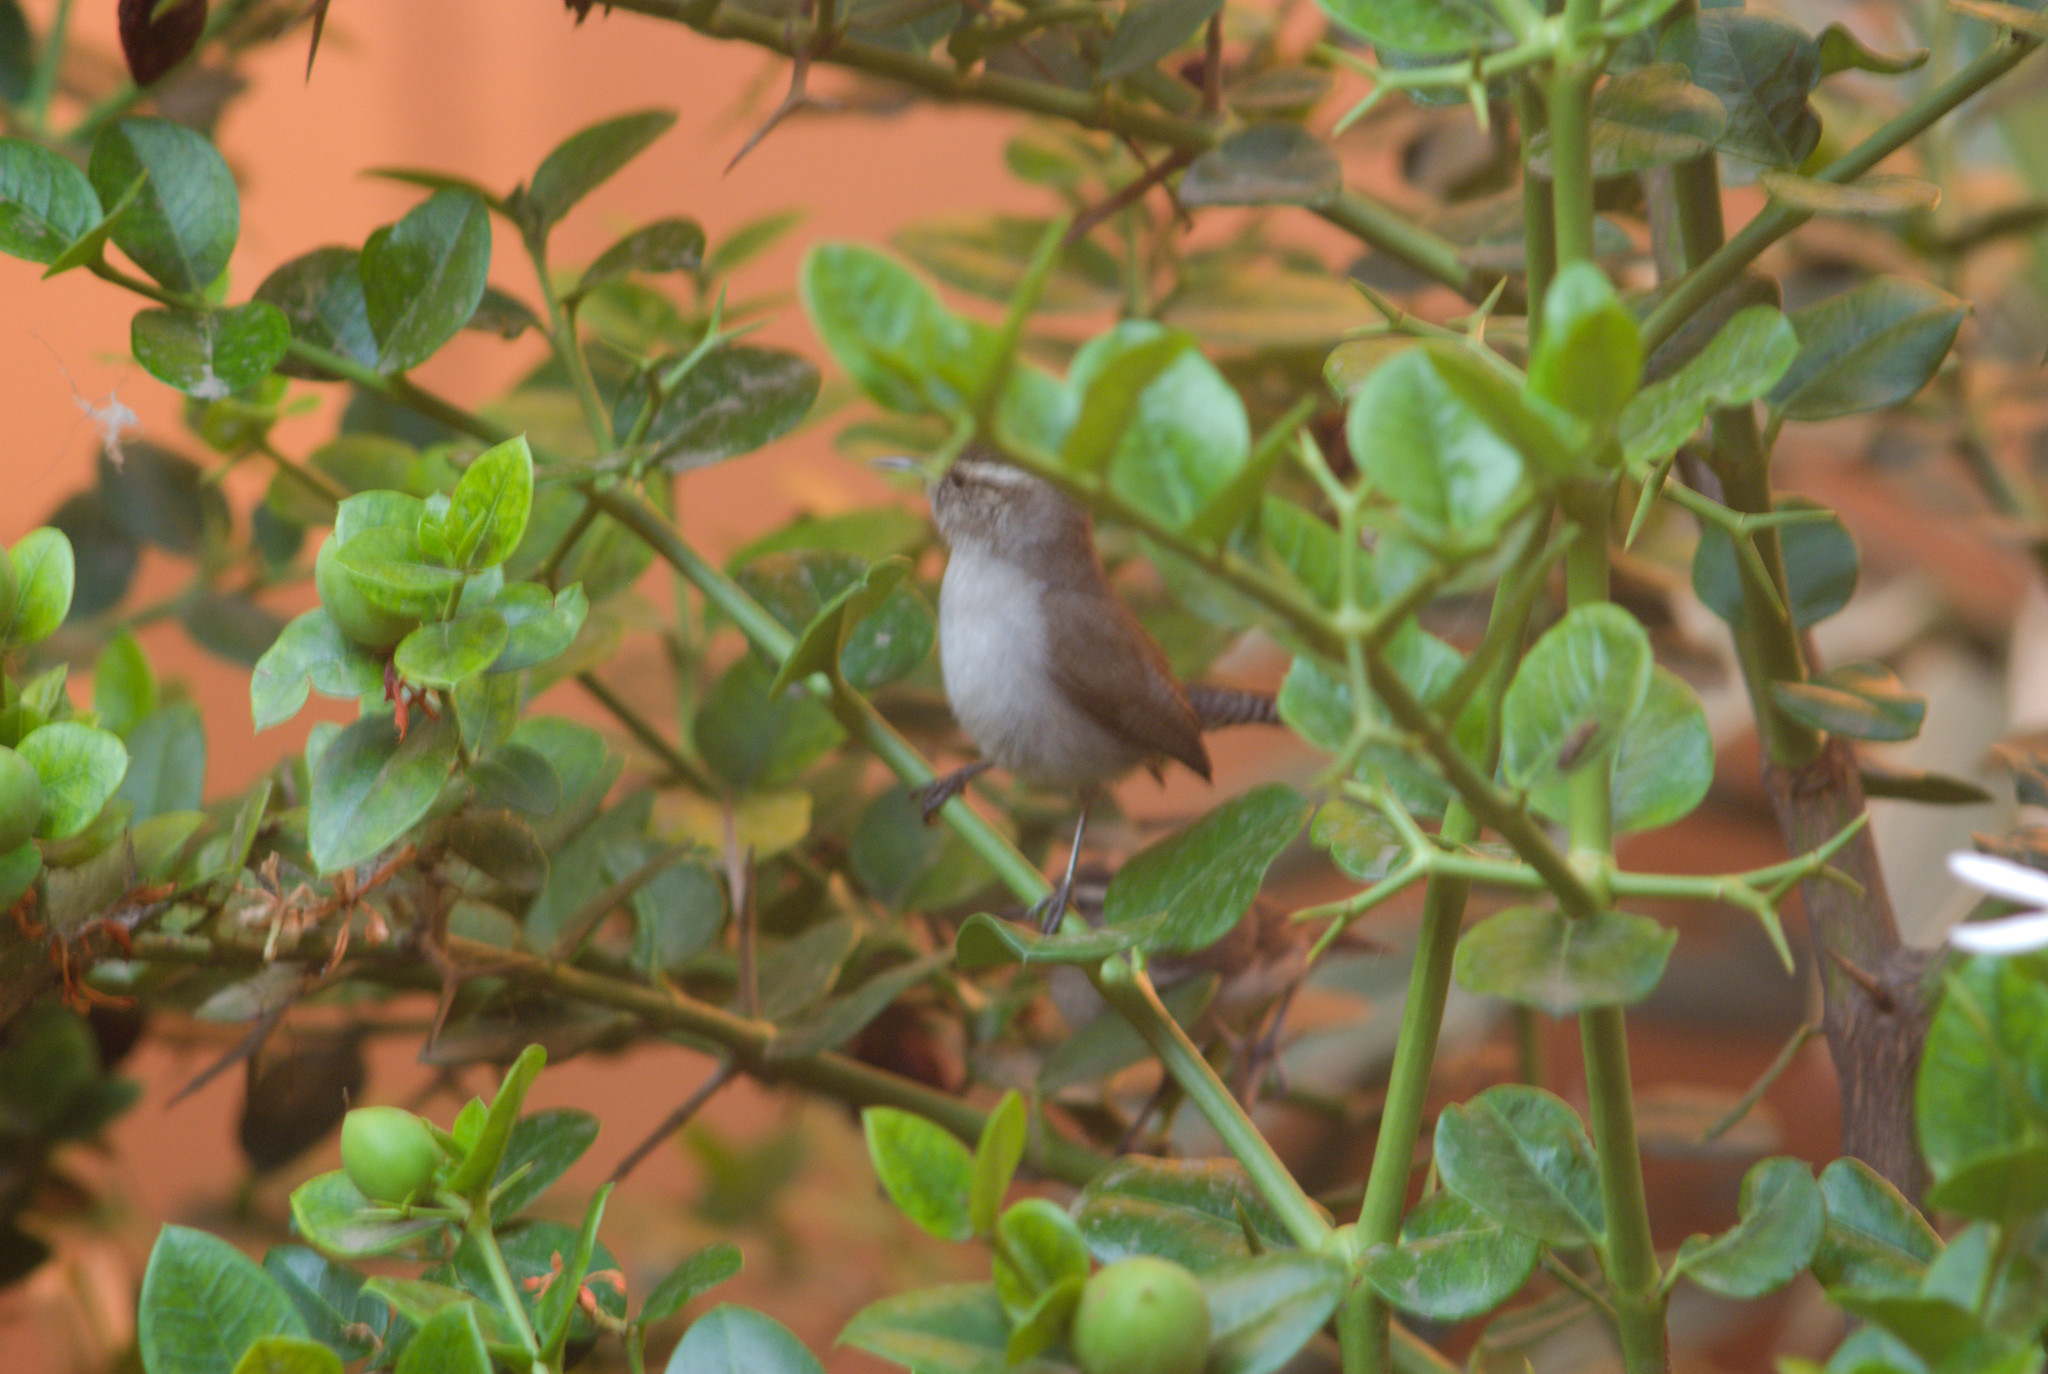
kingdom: Animalia
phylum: Chordata
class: Aves
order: Passeriformes
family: Troglodytidae
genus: Thryomanes
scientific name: Thryomanes bewickii
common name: Bewick's wren
